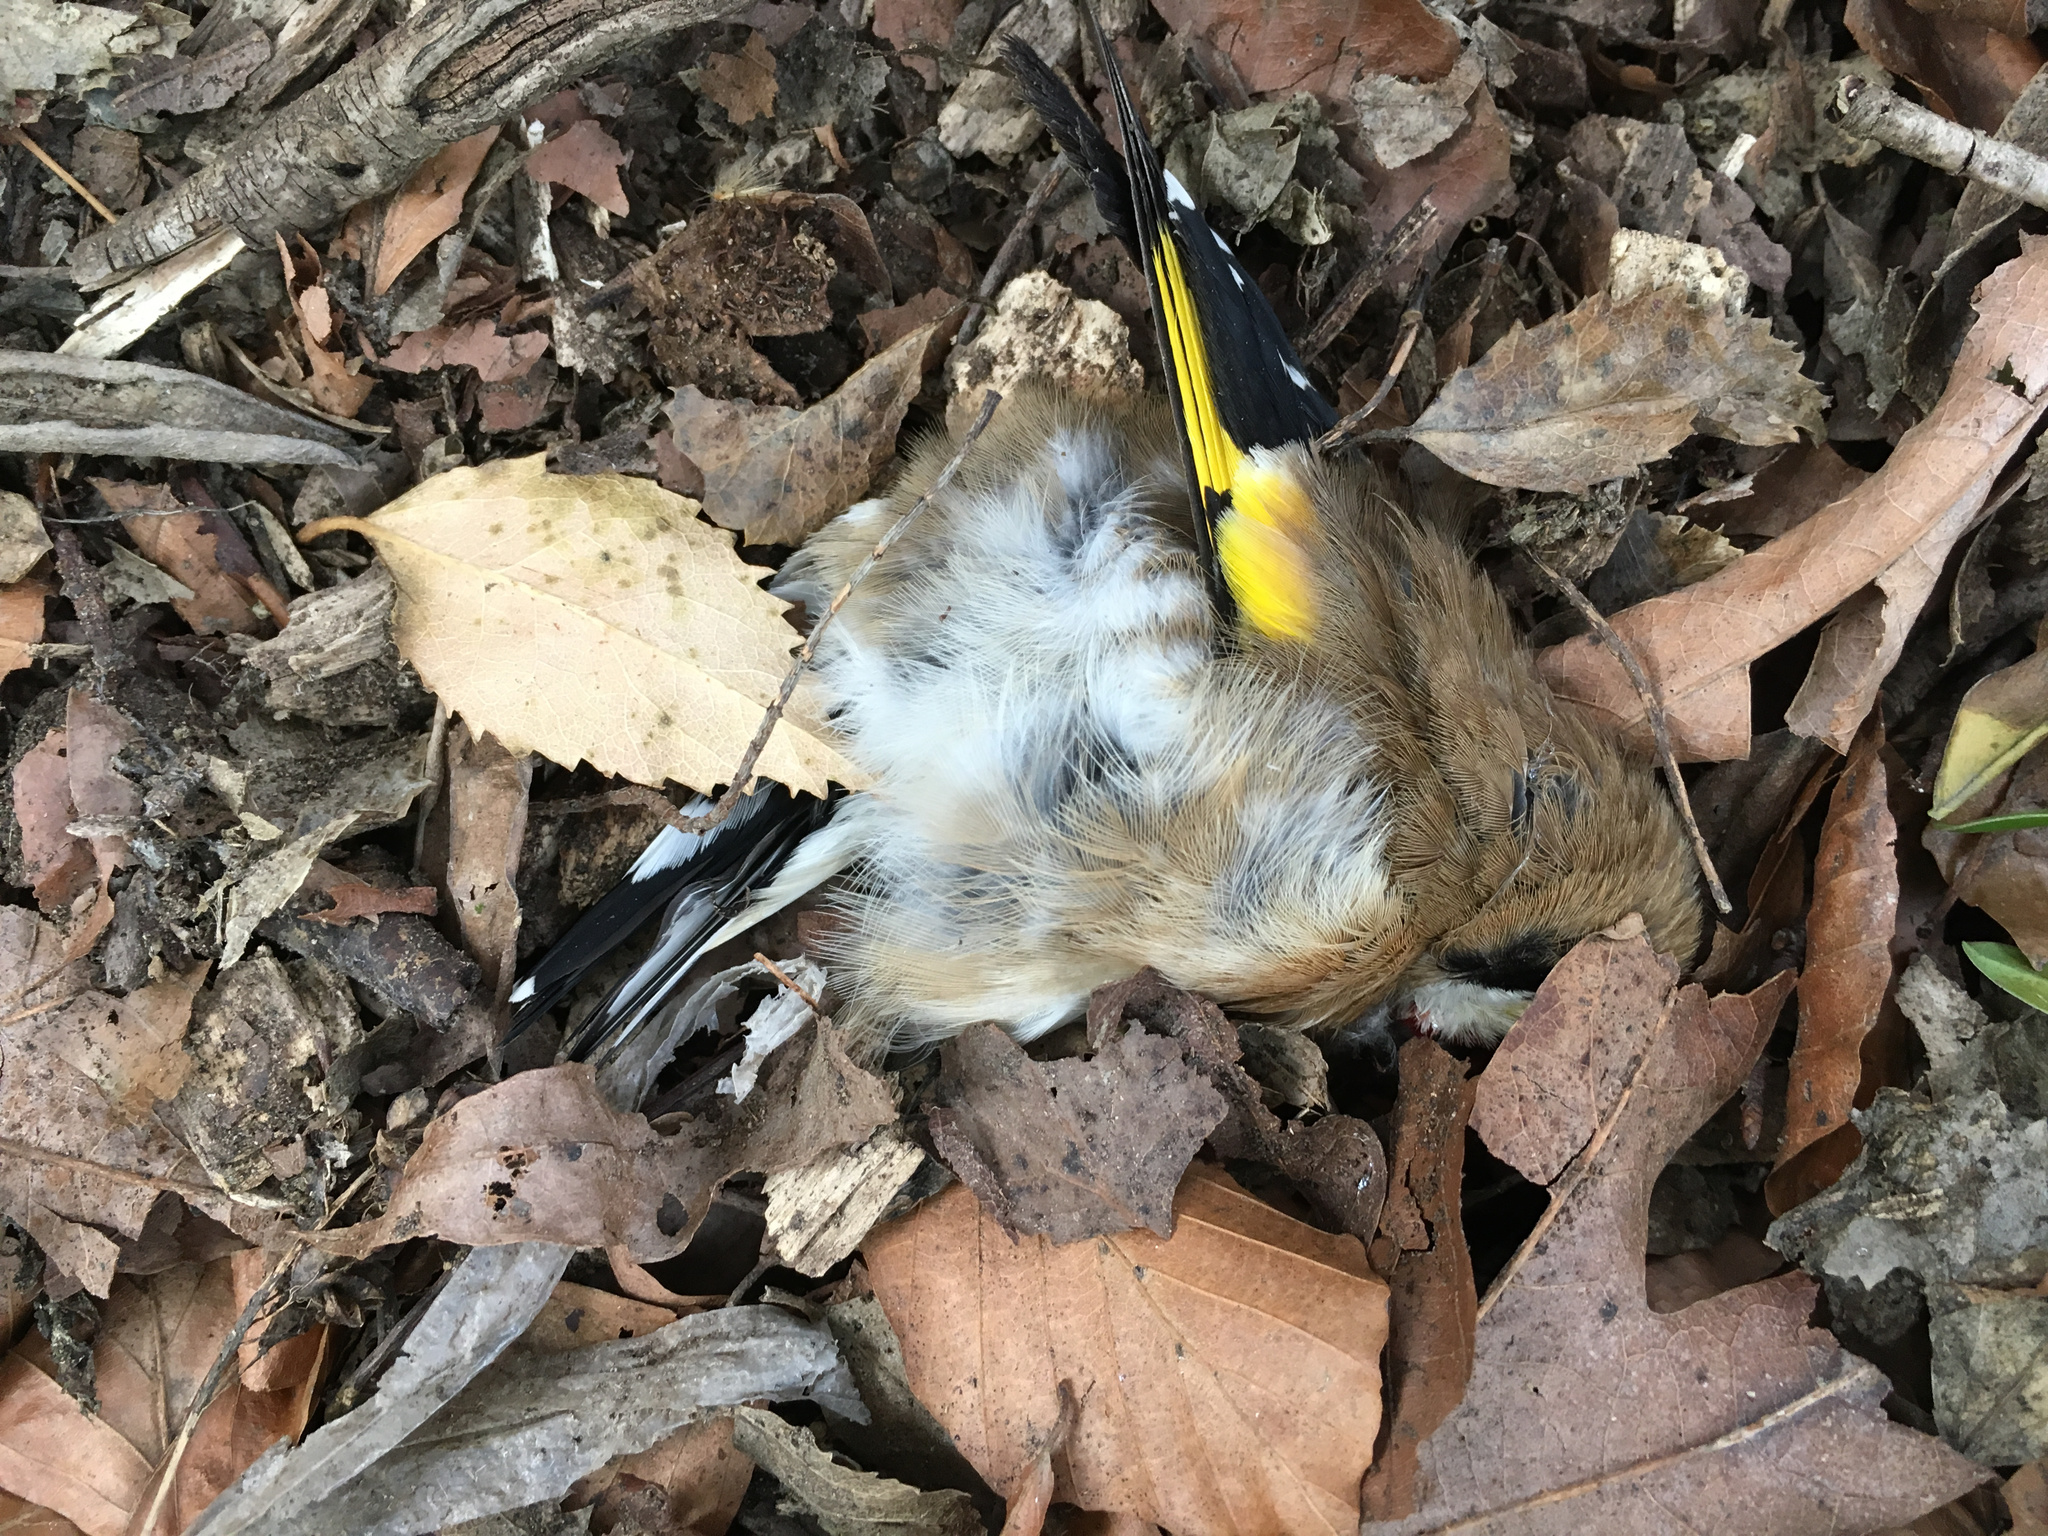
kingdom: Animalia
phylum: Chordata
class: Aves
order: Passeriformes
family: Fringillidae
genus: Carduelis
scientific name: Carduelis carduelis
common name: European goldfinch
